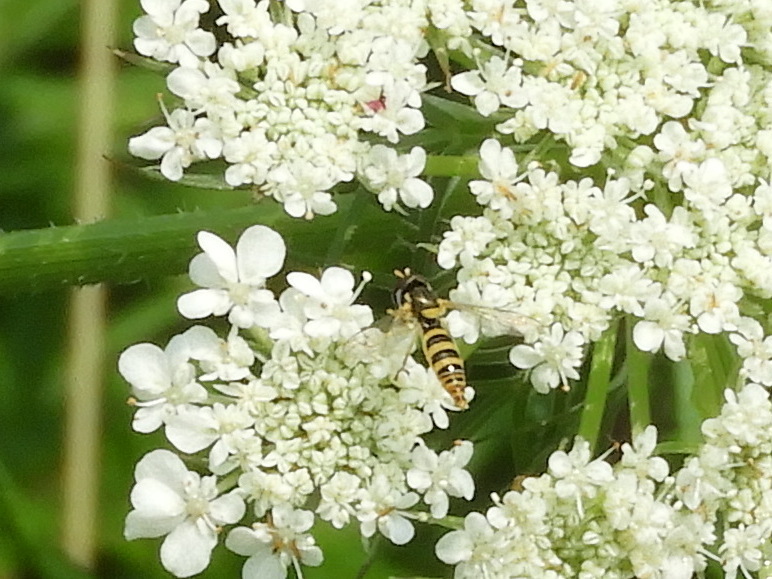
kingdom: Animalia
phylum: Arthropoda
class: Insecta
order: Diptera
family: Syrphidae
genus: Sphaerophoria
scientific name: Sphaerophoria contigua
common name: Tufted globetail
